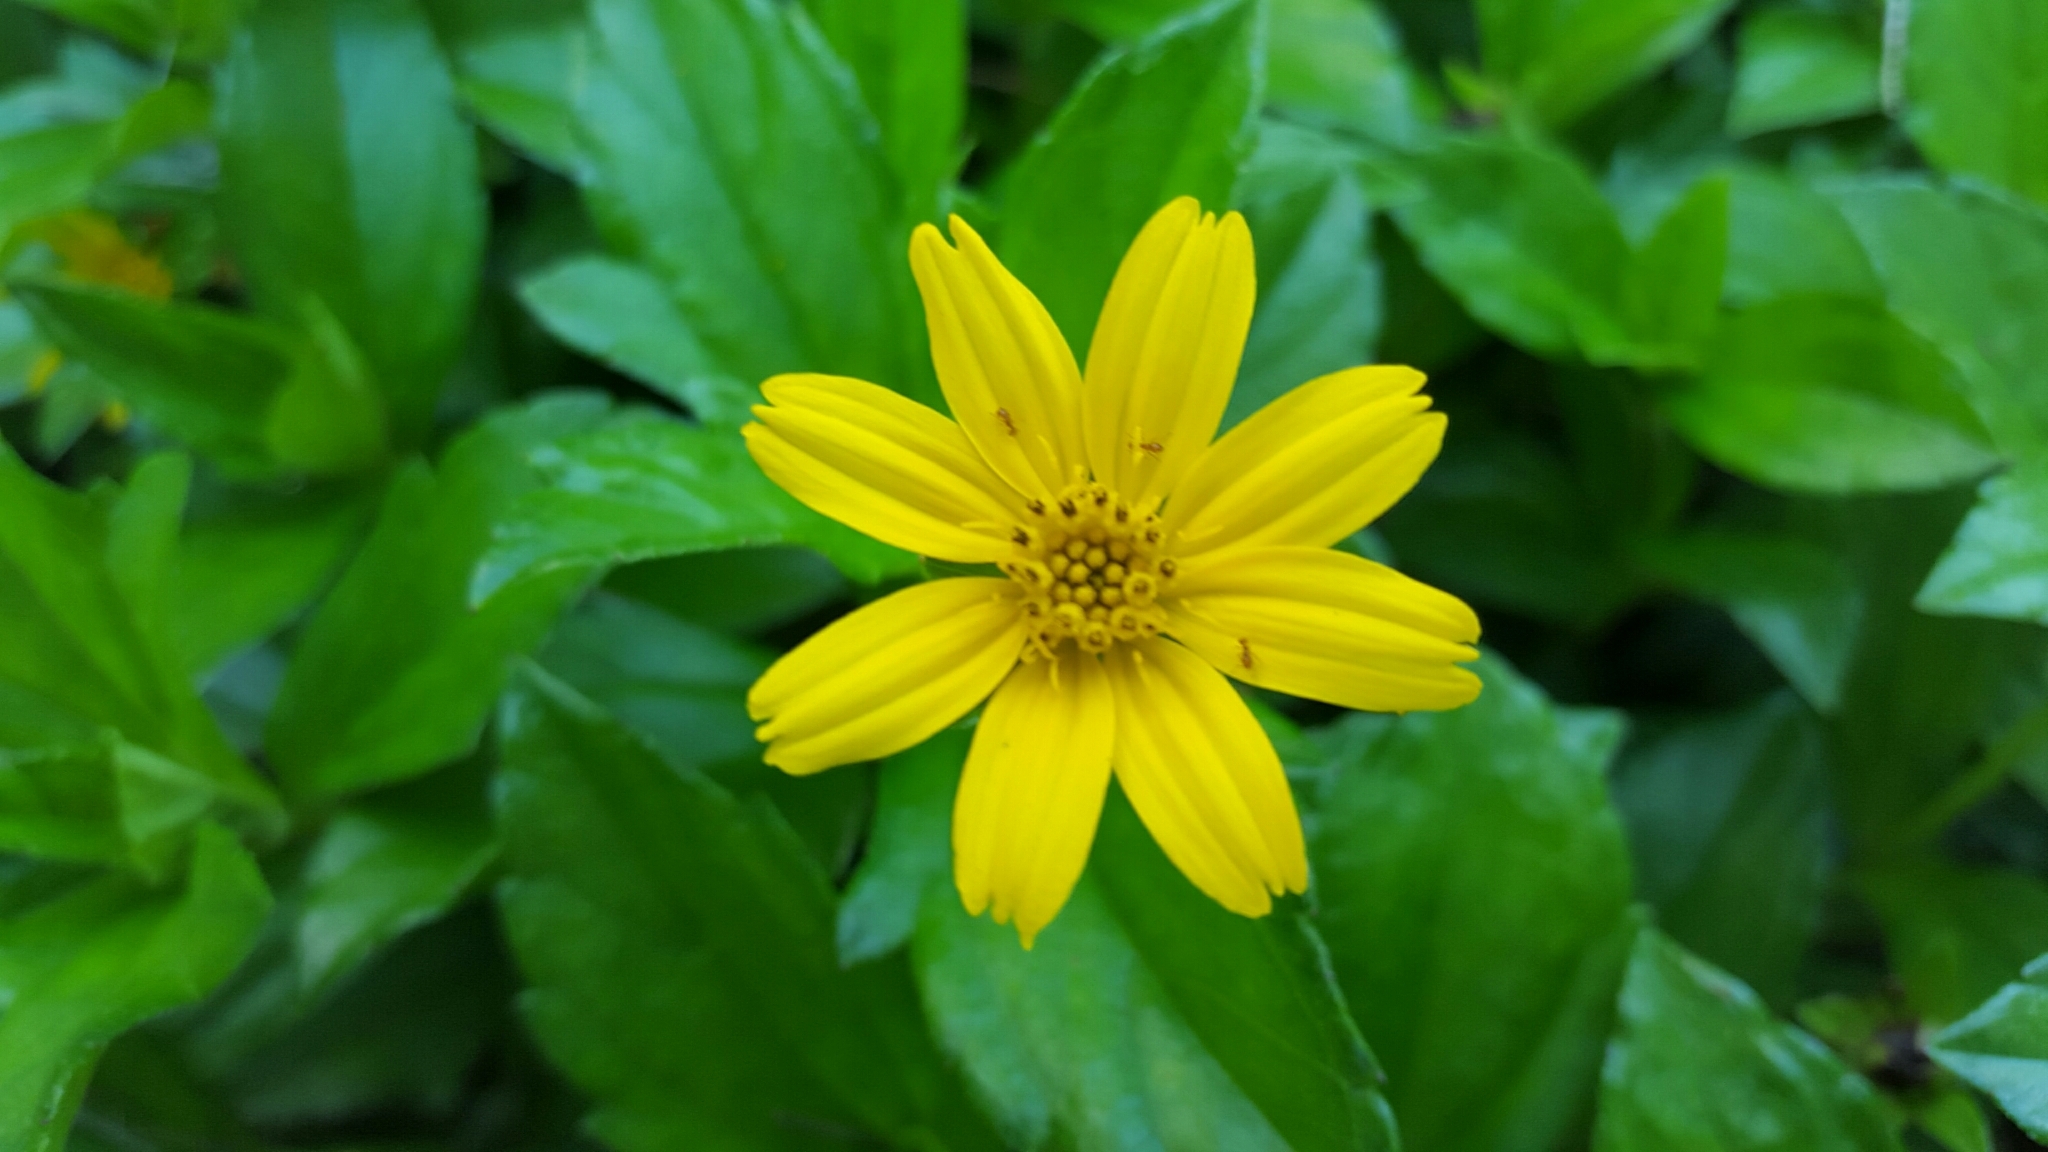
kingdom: Plantae
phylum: Tracheophyta
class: Magnoliopsida
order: Asterales
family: Asteraceae
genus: Sphagneticola
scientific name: Sphagneticola trilobata
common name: Bay biscayne creeping-oxeye
